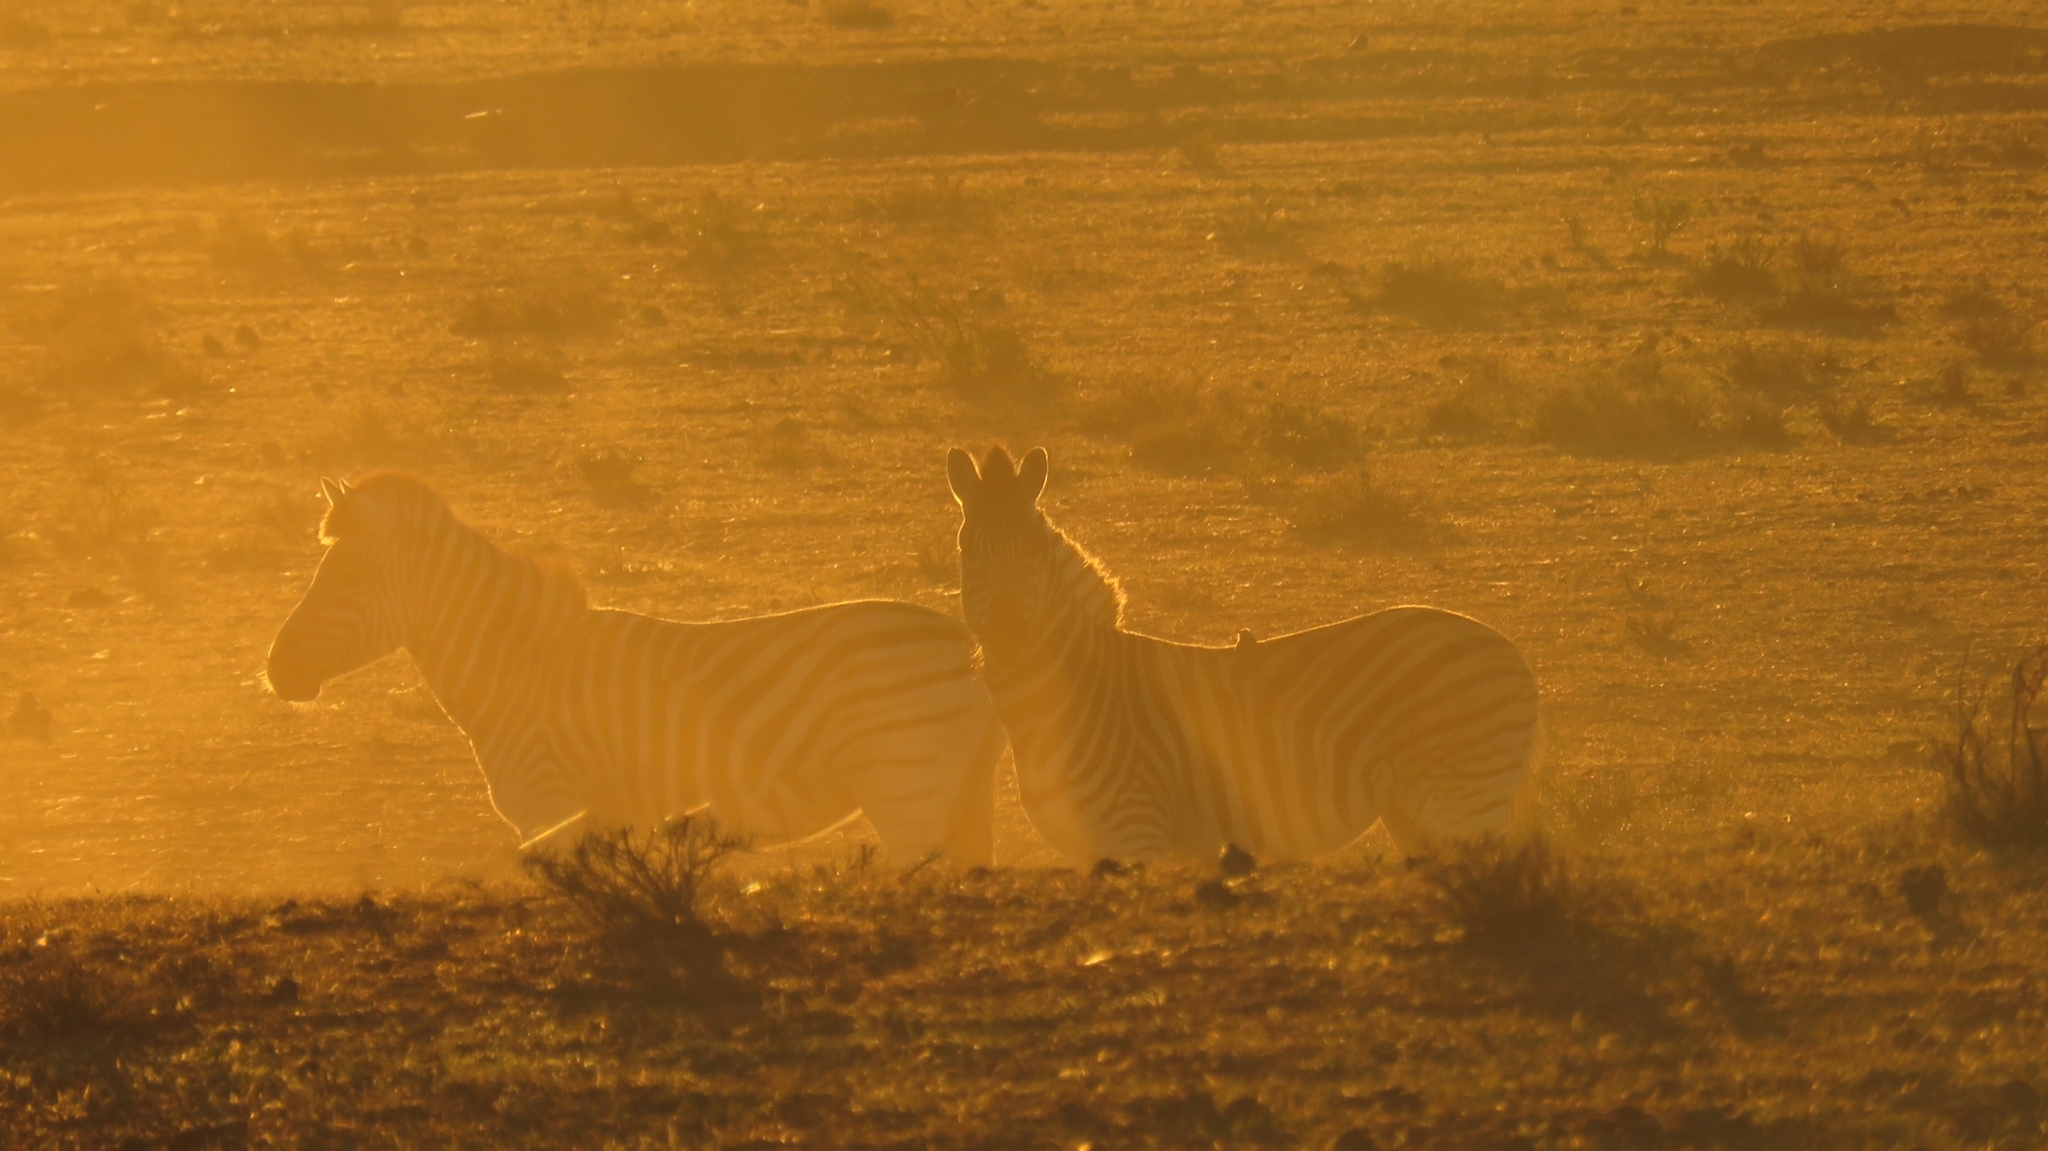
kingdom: Animalia
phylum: Chordata
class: Mammalia
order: Perissodactyla
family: Equidae
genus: Equus
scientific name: Equus quagga
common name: Plains zebra
